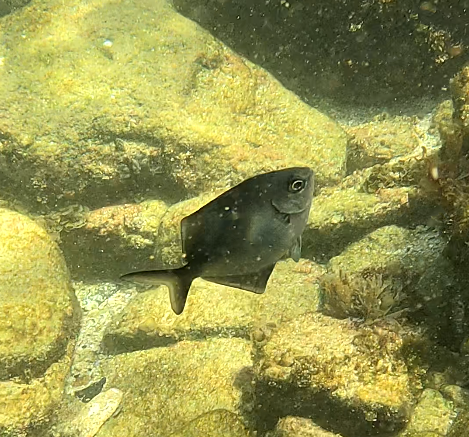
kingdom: Animalia
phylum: Chordata
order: Perciformes
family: Kyphosidae
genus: Scorpis
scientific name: Scorpis lineolata
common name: Sweep
